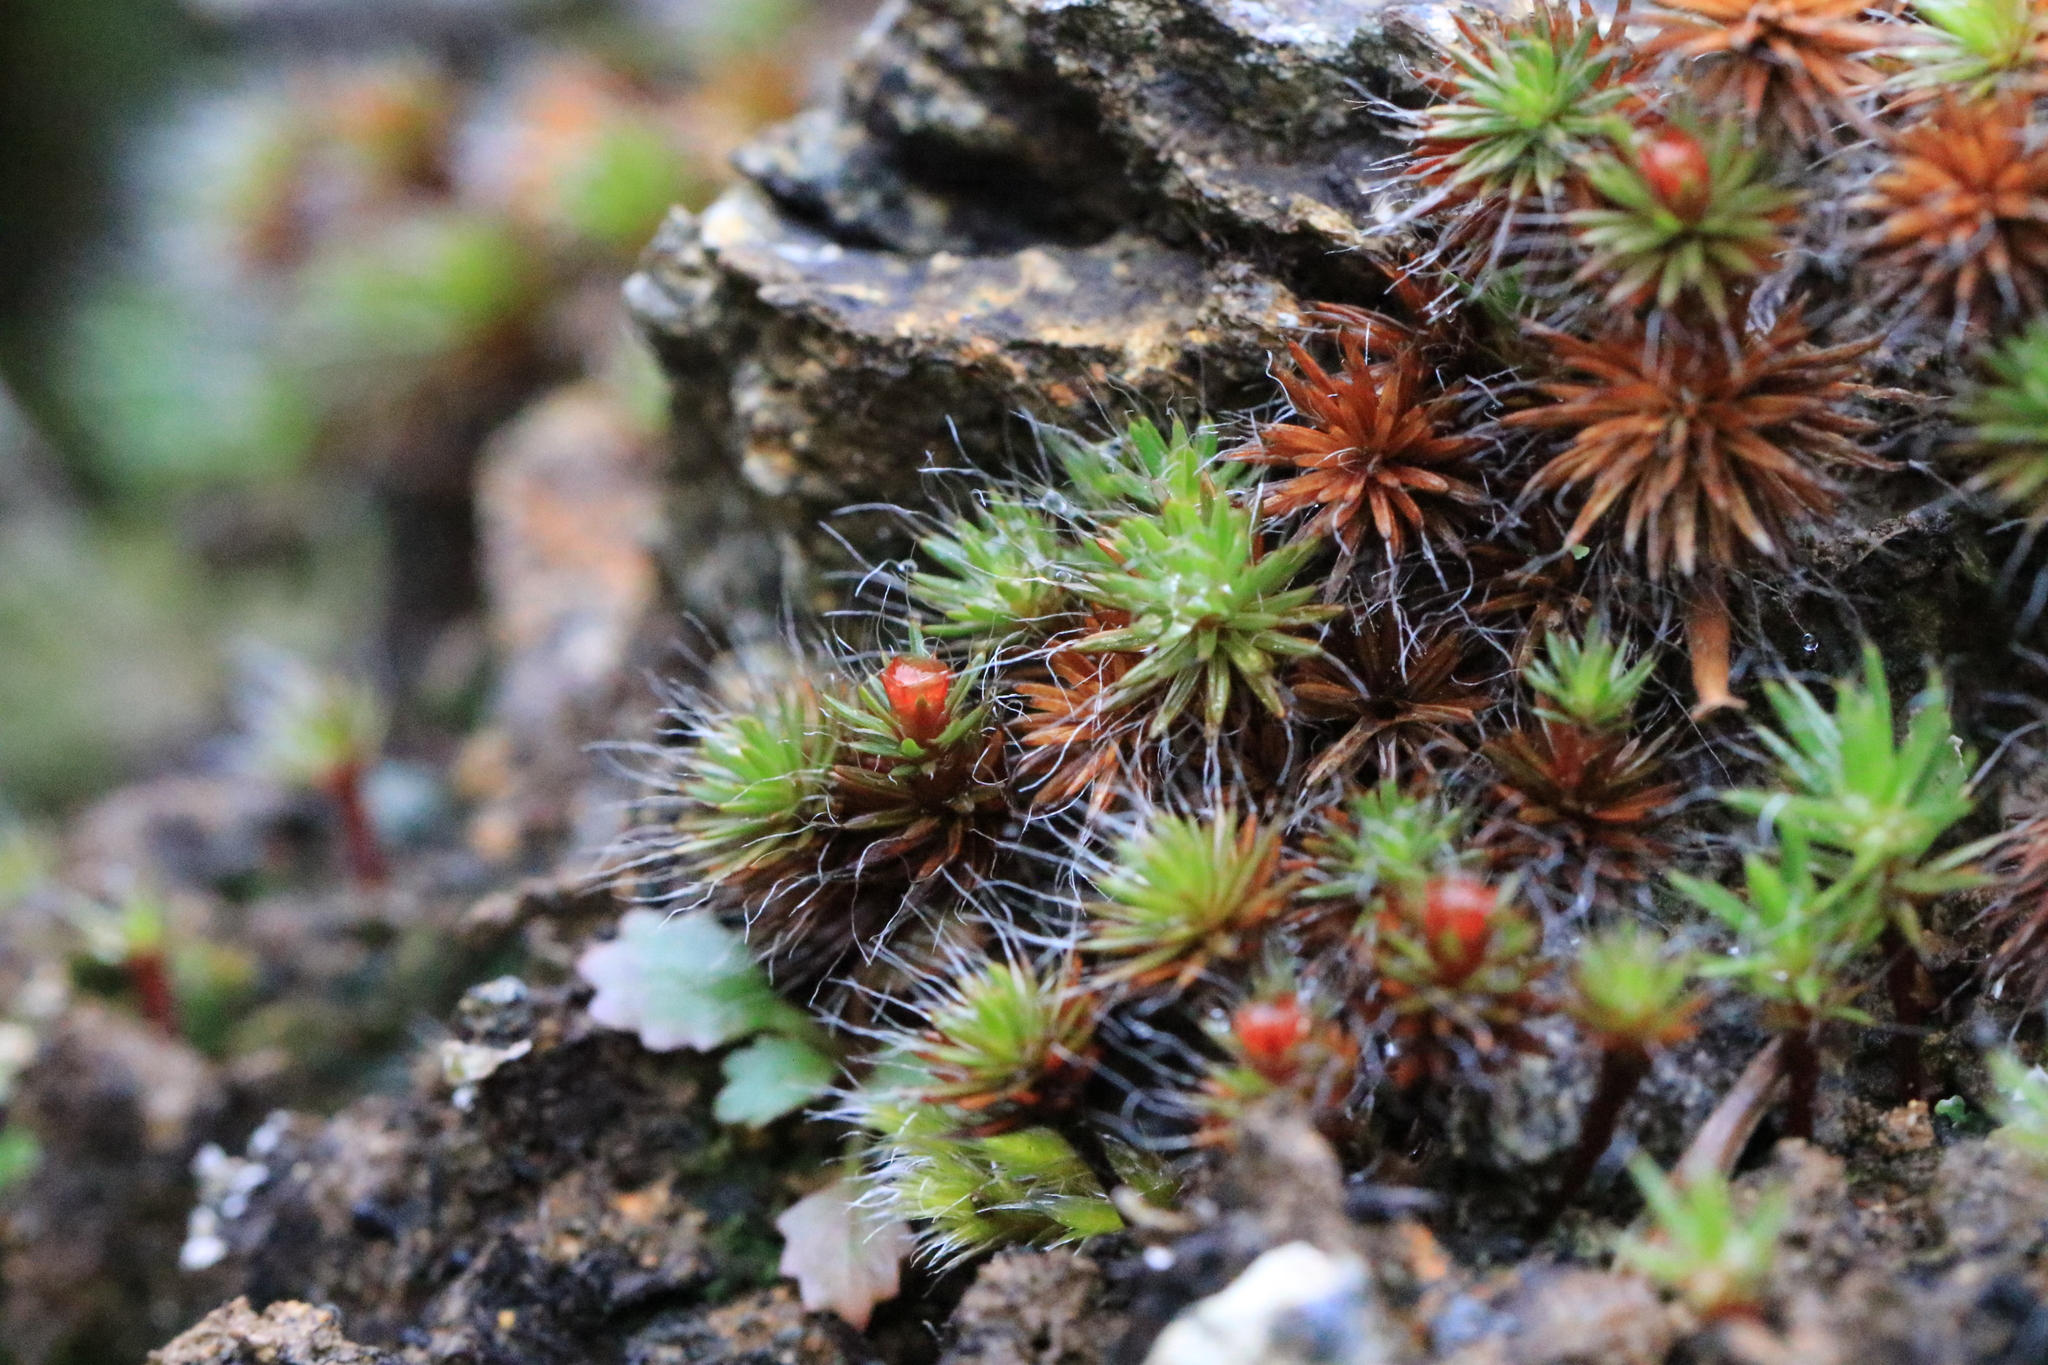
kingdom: Plantae
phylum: Bryophyta
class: Polytrichopsida
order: Polytrichales
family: Polytrichaceae
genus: Polytrichum
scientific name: Polytrichum piliferum
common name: Bristly haircap
